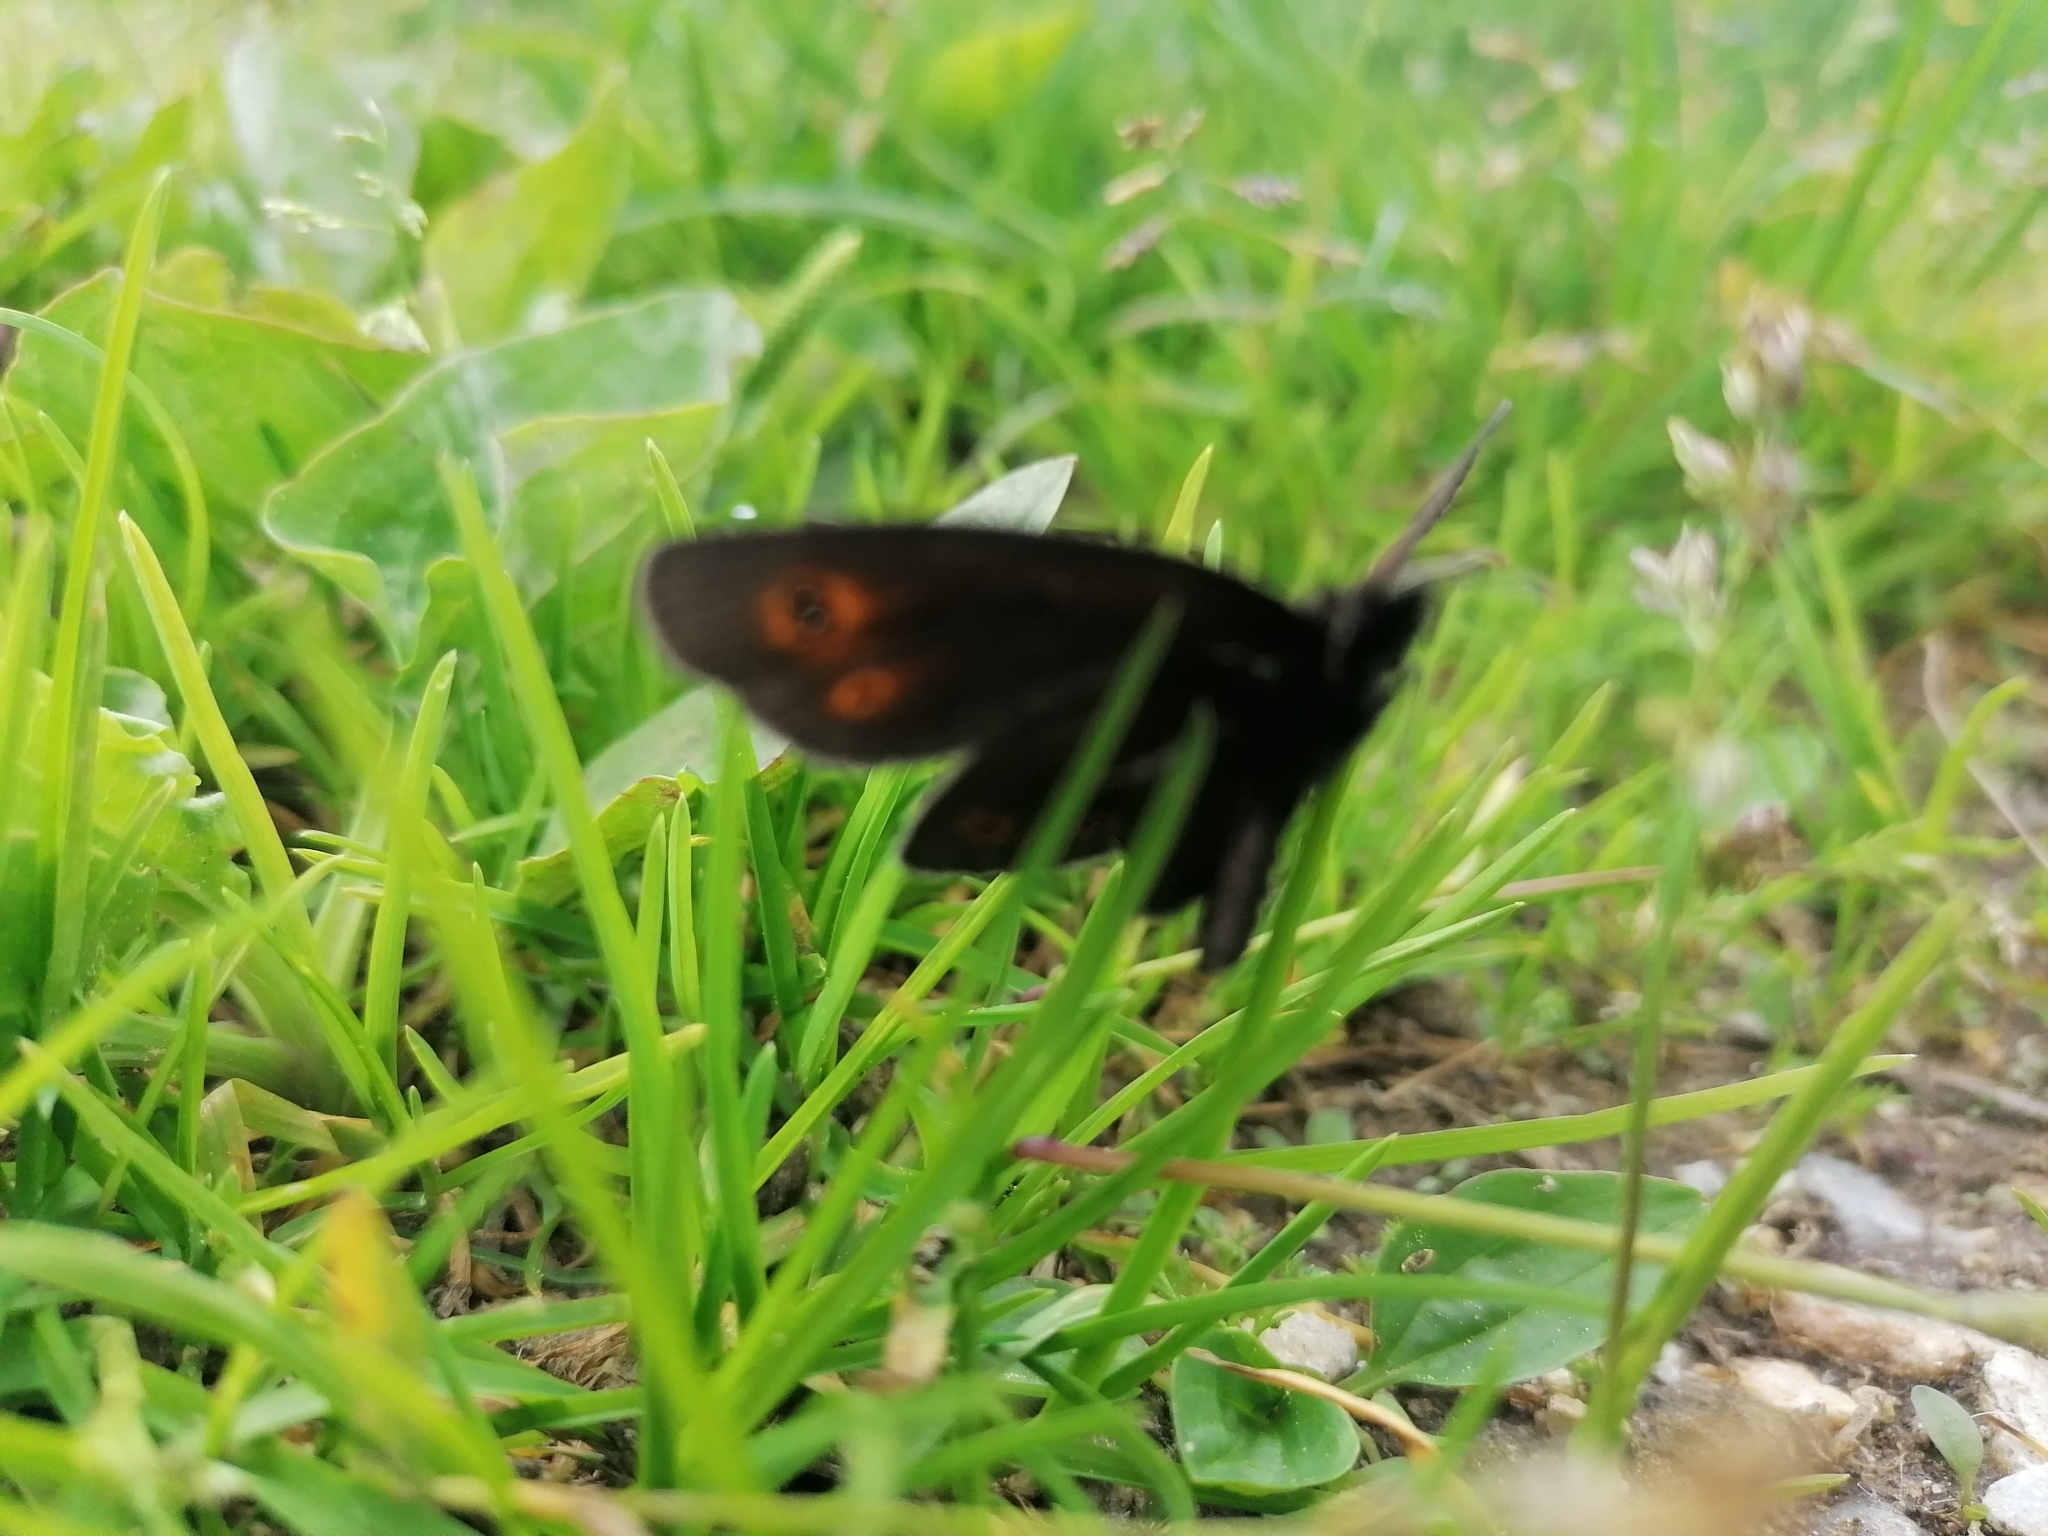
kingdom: Animalia
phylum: Arthropoda
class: Insecta
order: Lepidoptera
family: Nymphalidae
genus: Erebia
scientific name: Erebia medusa
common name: Woodland ringlet
